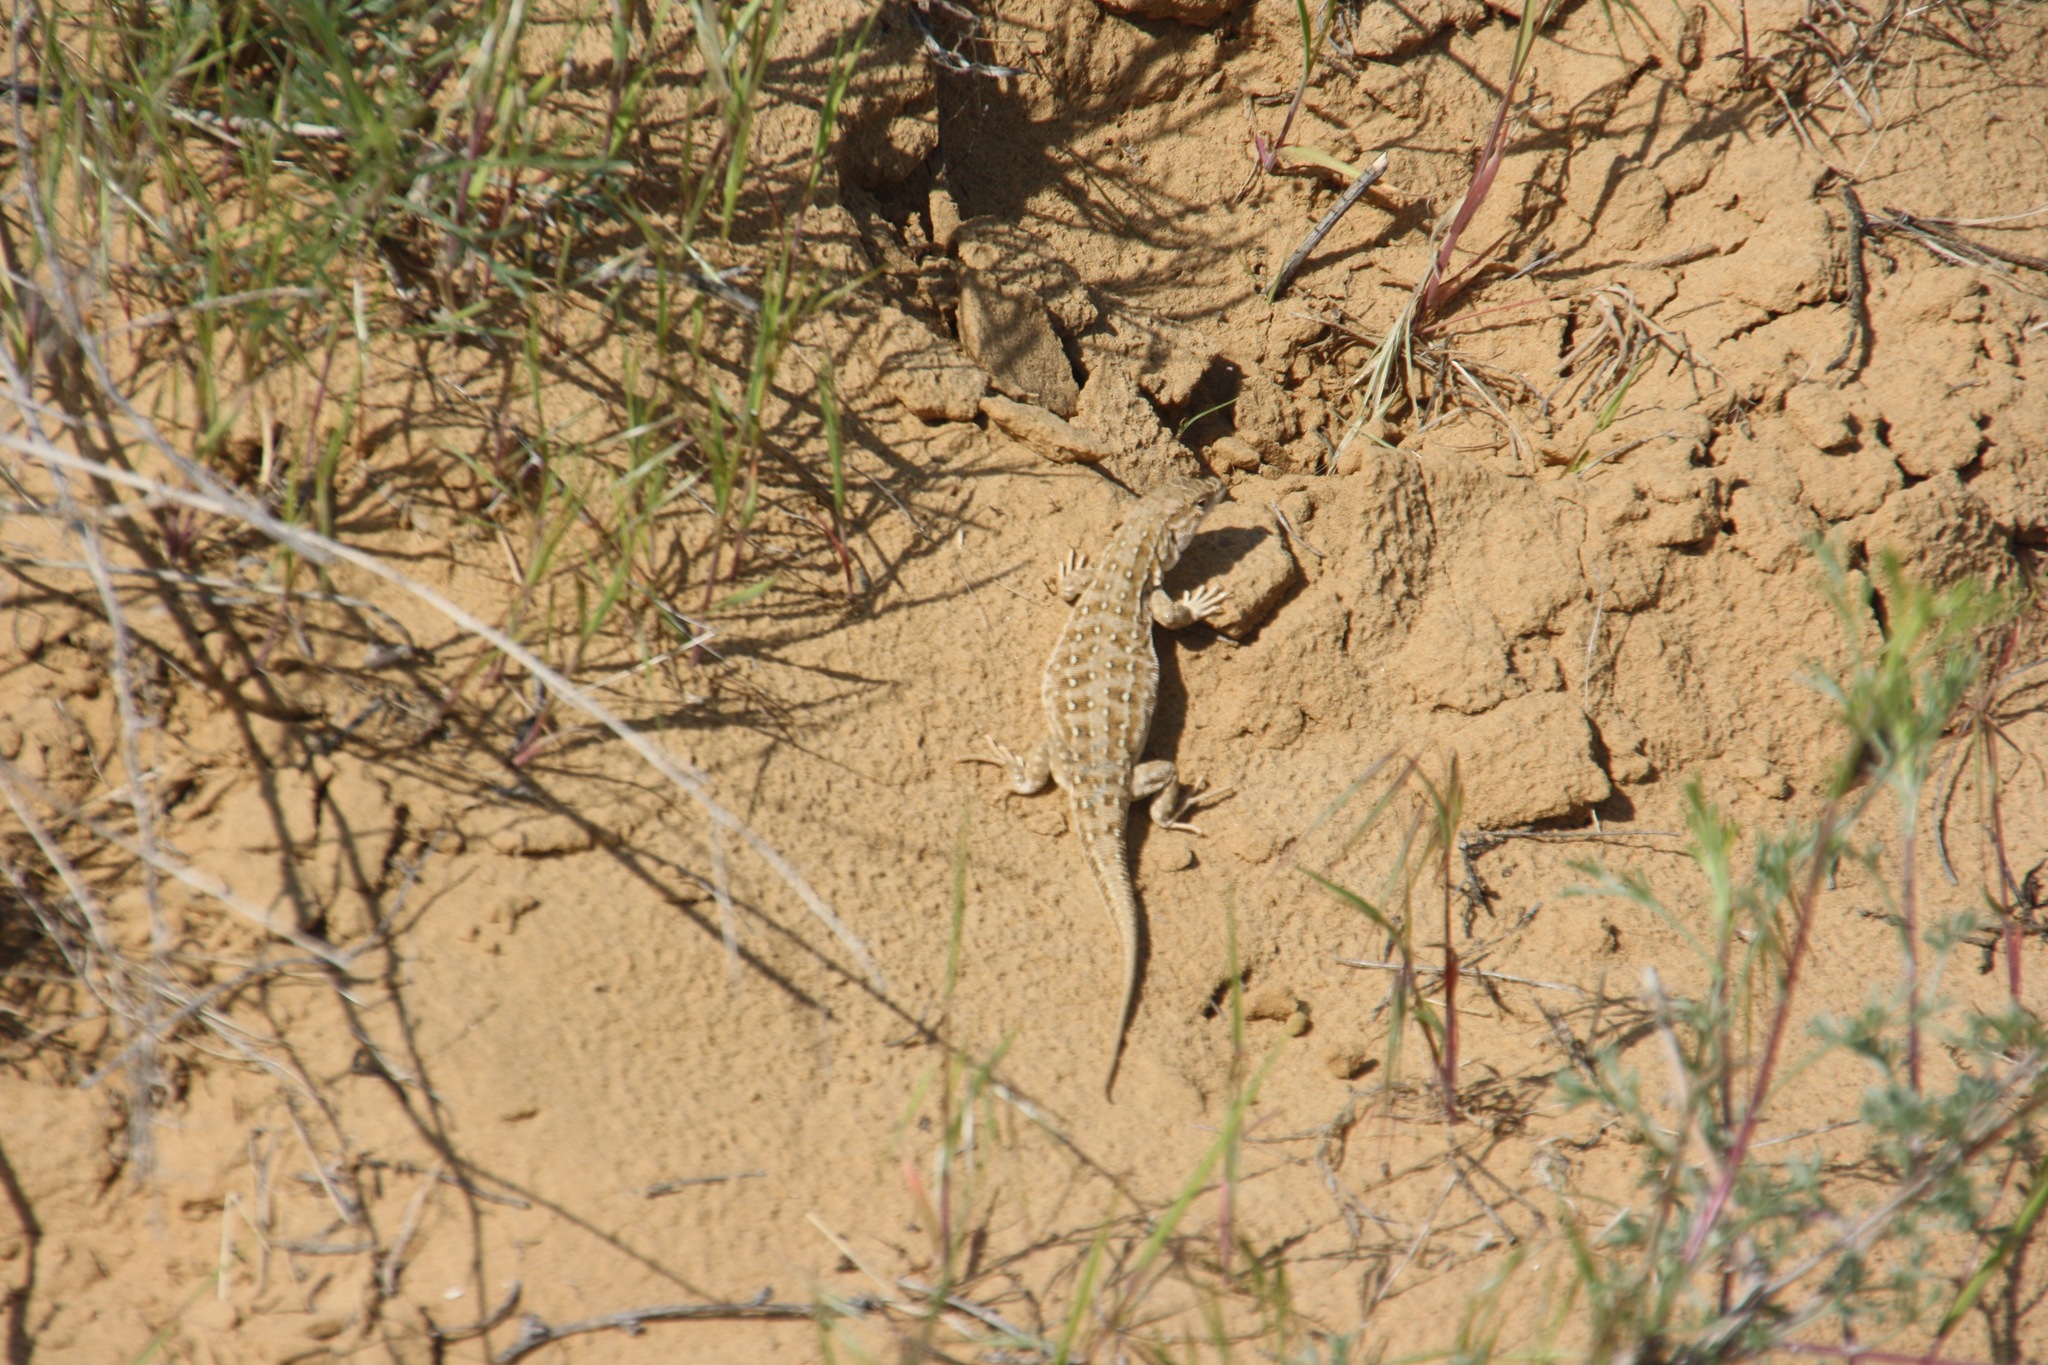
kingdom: Animalia
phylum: Chordata
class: Squamata
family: Lacertidae
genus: Eremias
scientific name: Eremias arguta
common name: Racerunner
